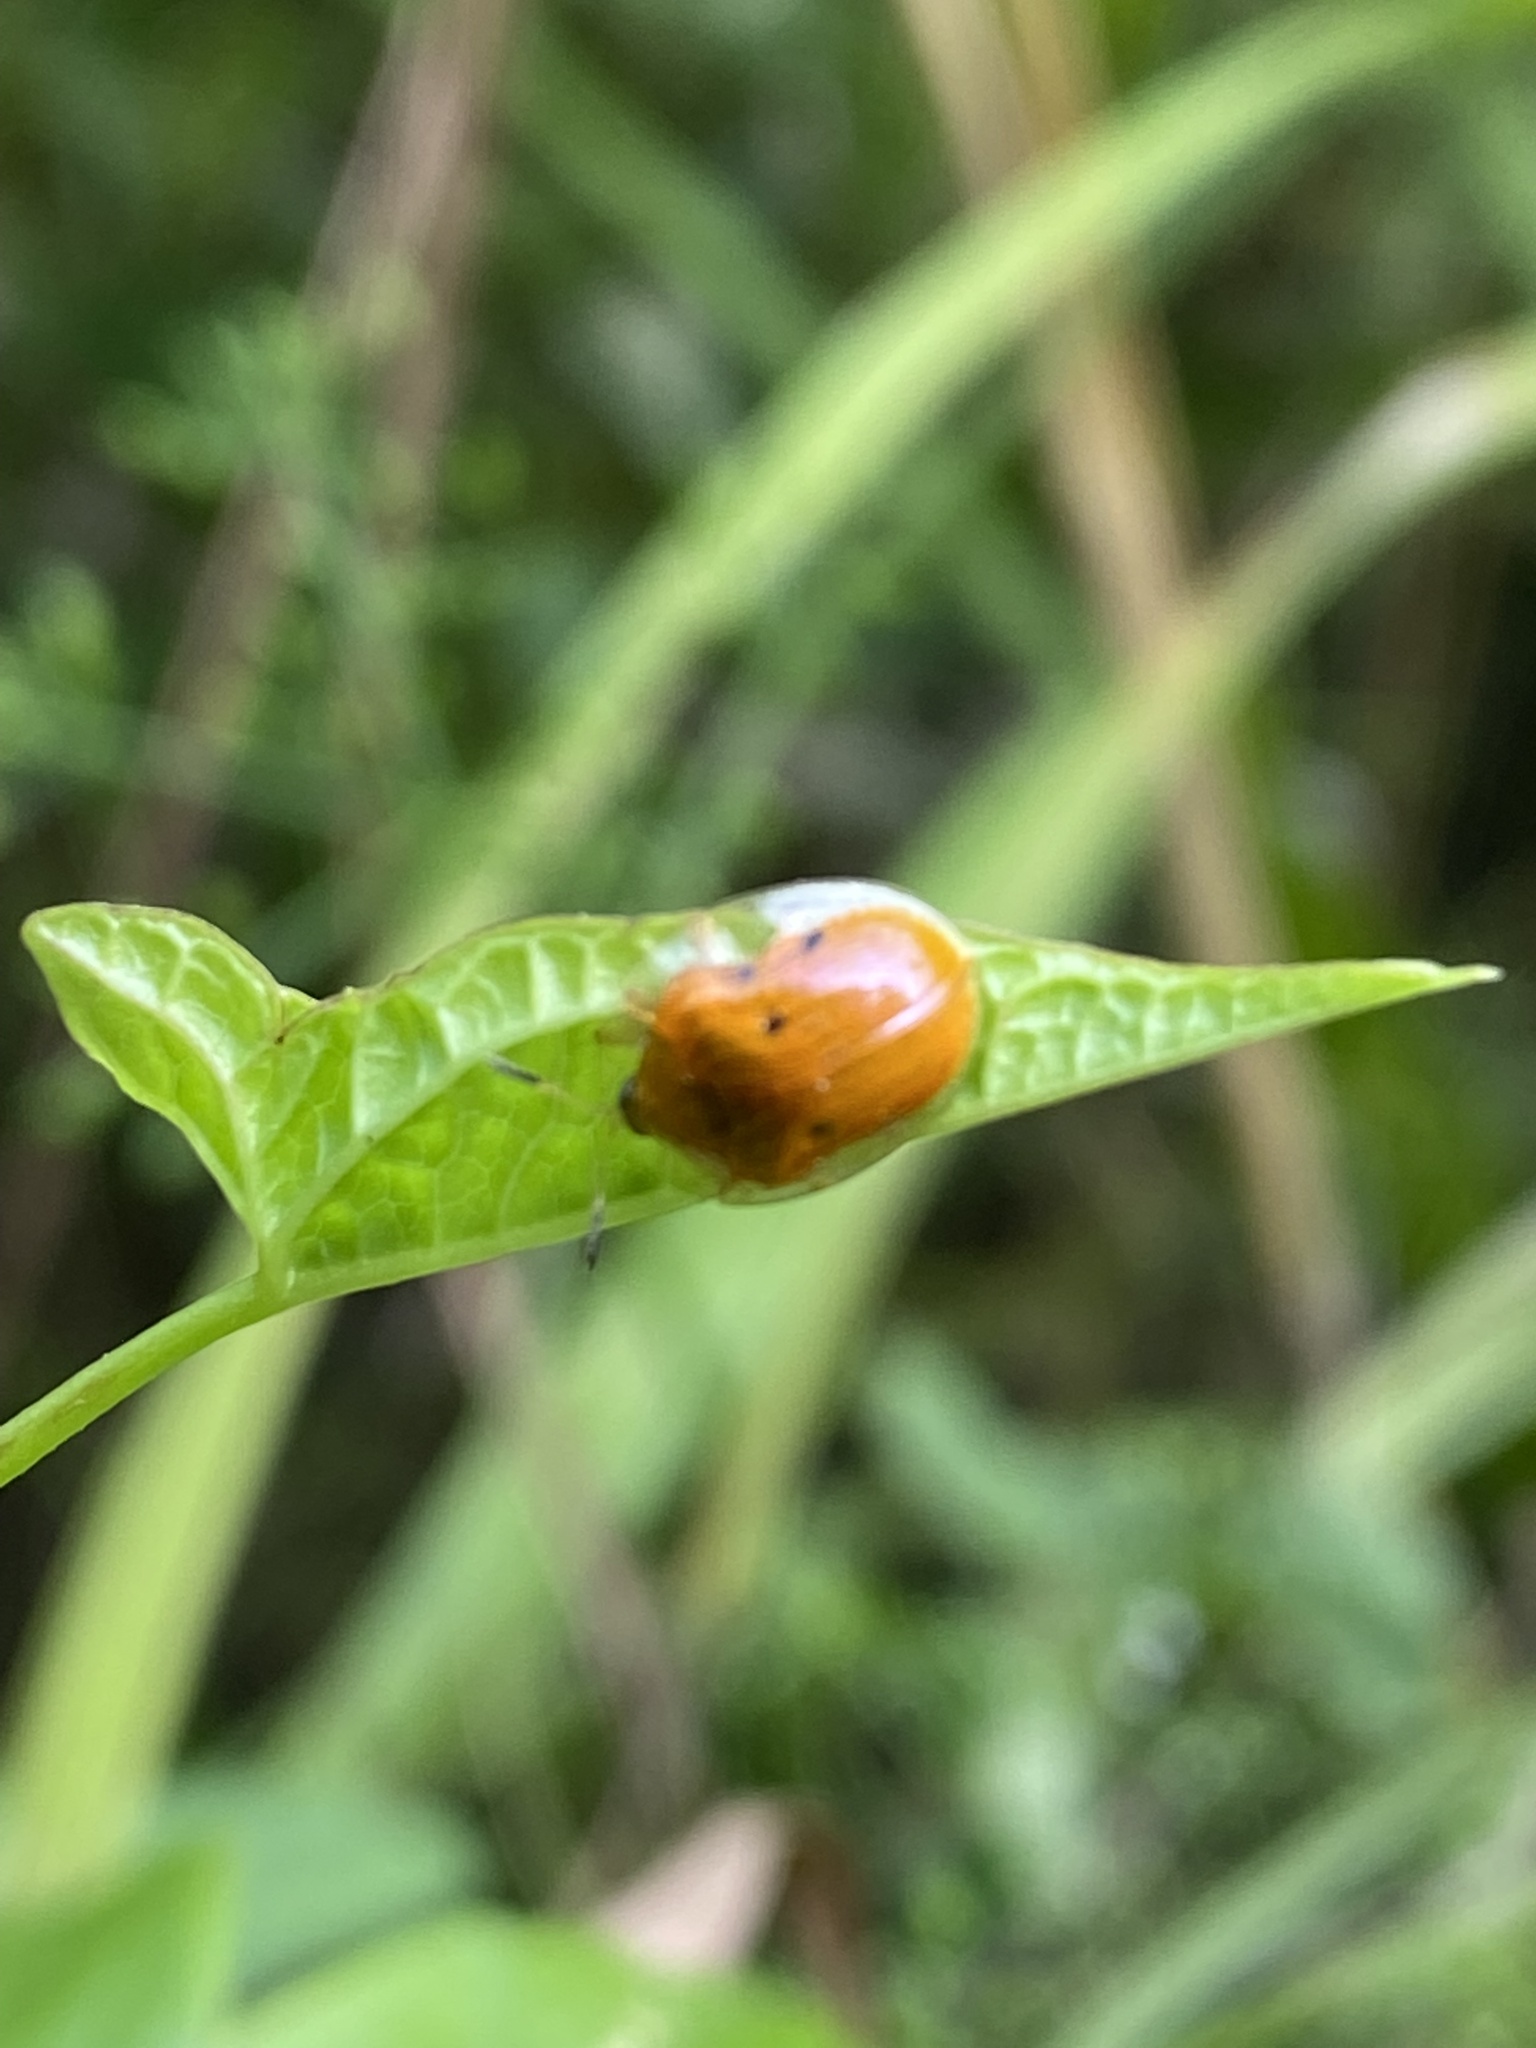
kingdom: Animalia
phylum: Arthropoda
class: Insecta
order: Coleoptera
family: Chrysomelidae
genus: Charidotella
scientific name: Charidotella sexpunctata
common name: Golden tortoise beetle
